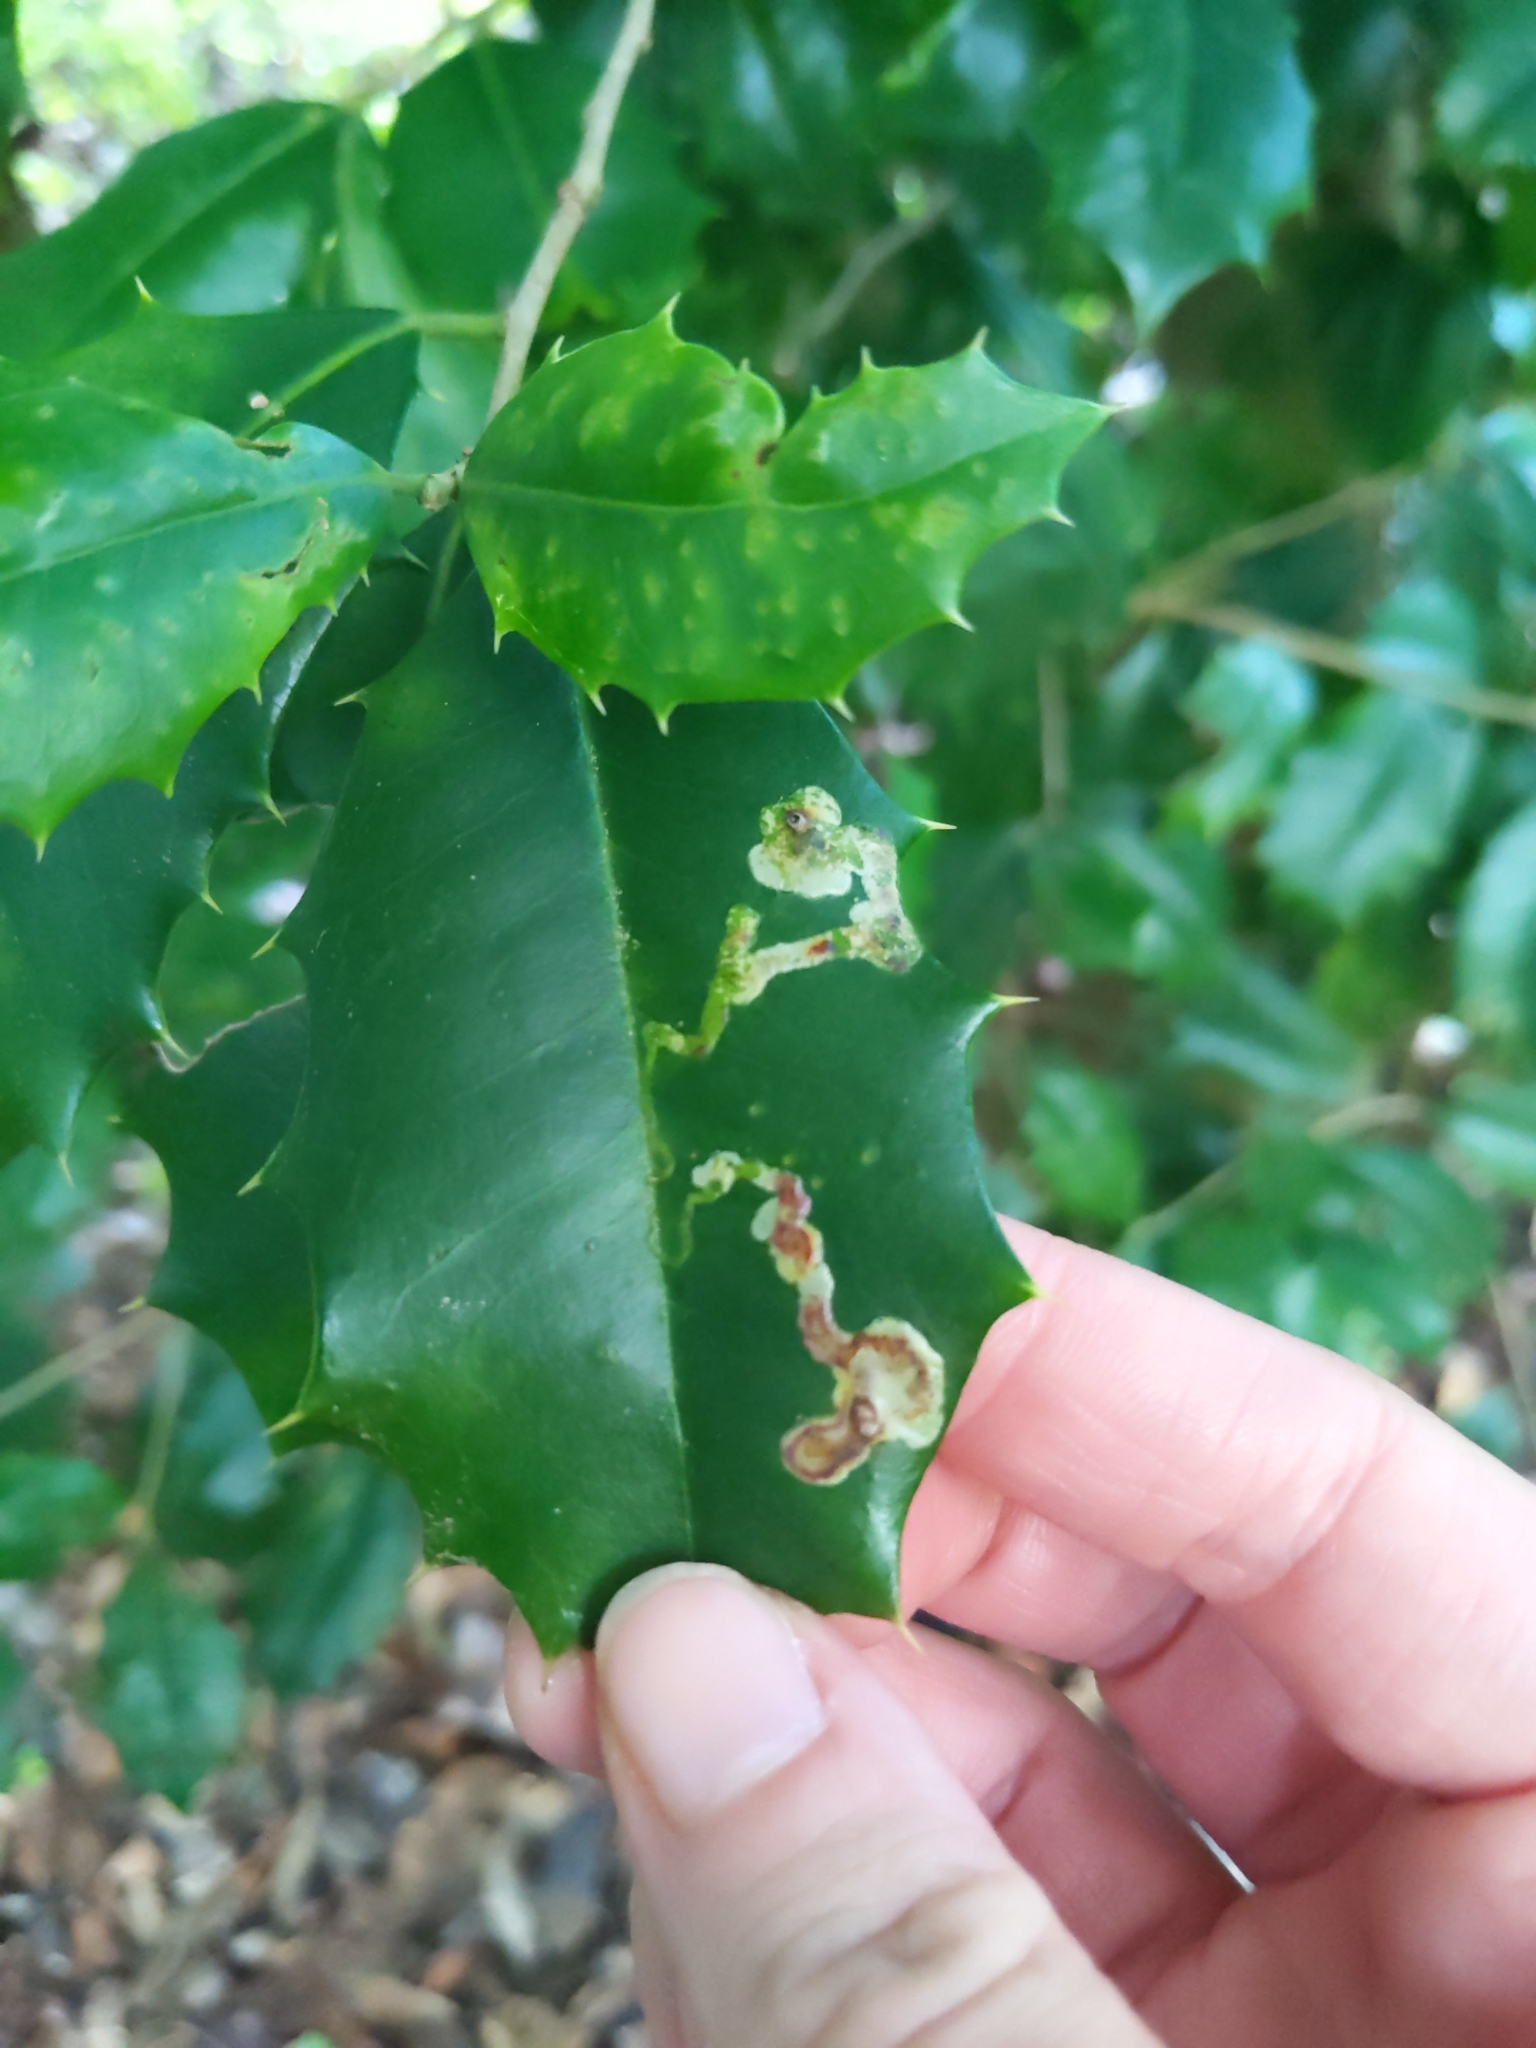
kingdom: Animalia
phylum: Arthropoda
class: Insecta
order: Diptera
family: Agromyzidae
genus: Phytomyza
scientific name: Phytomyza ilicicola
